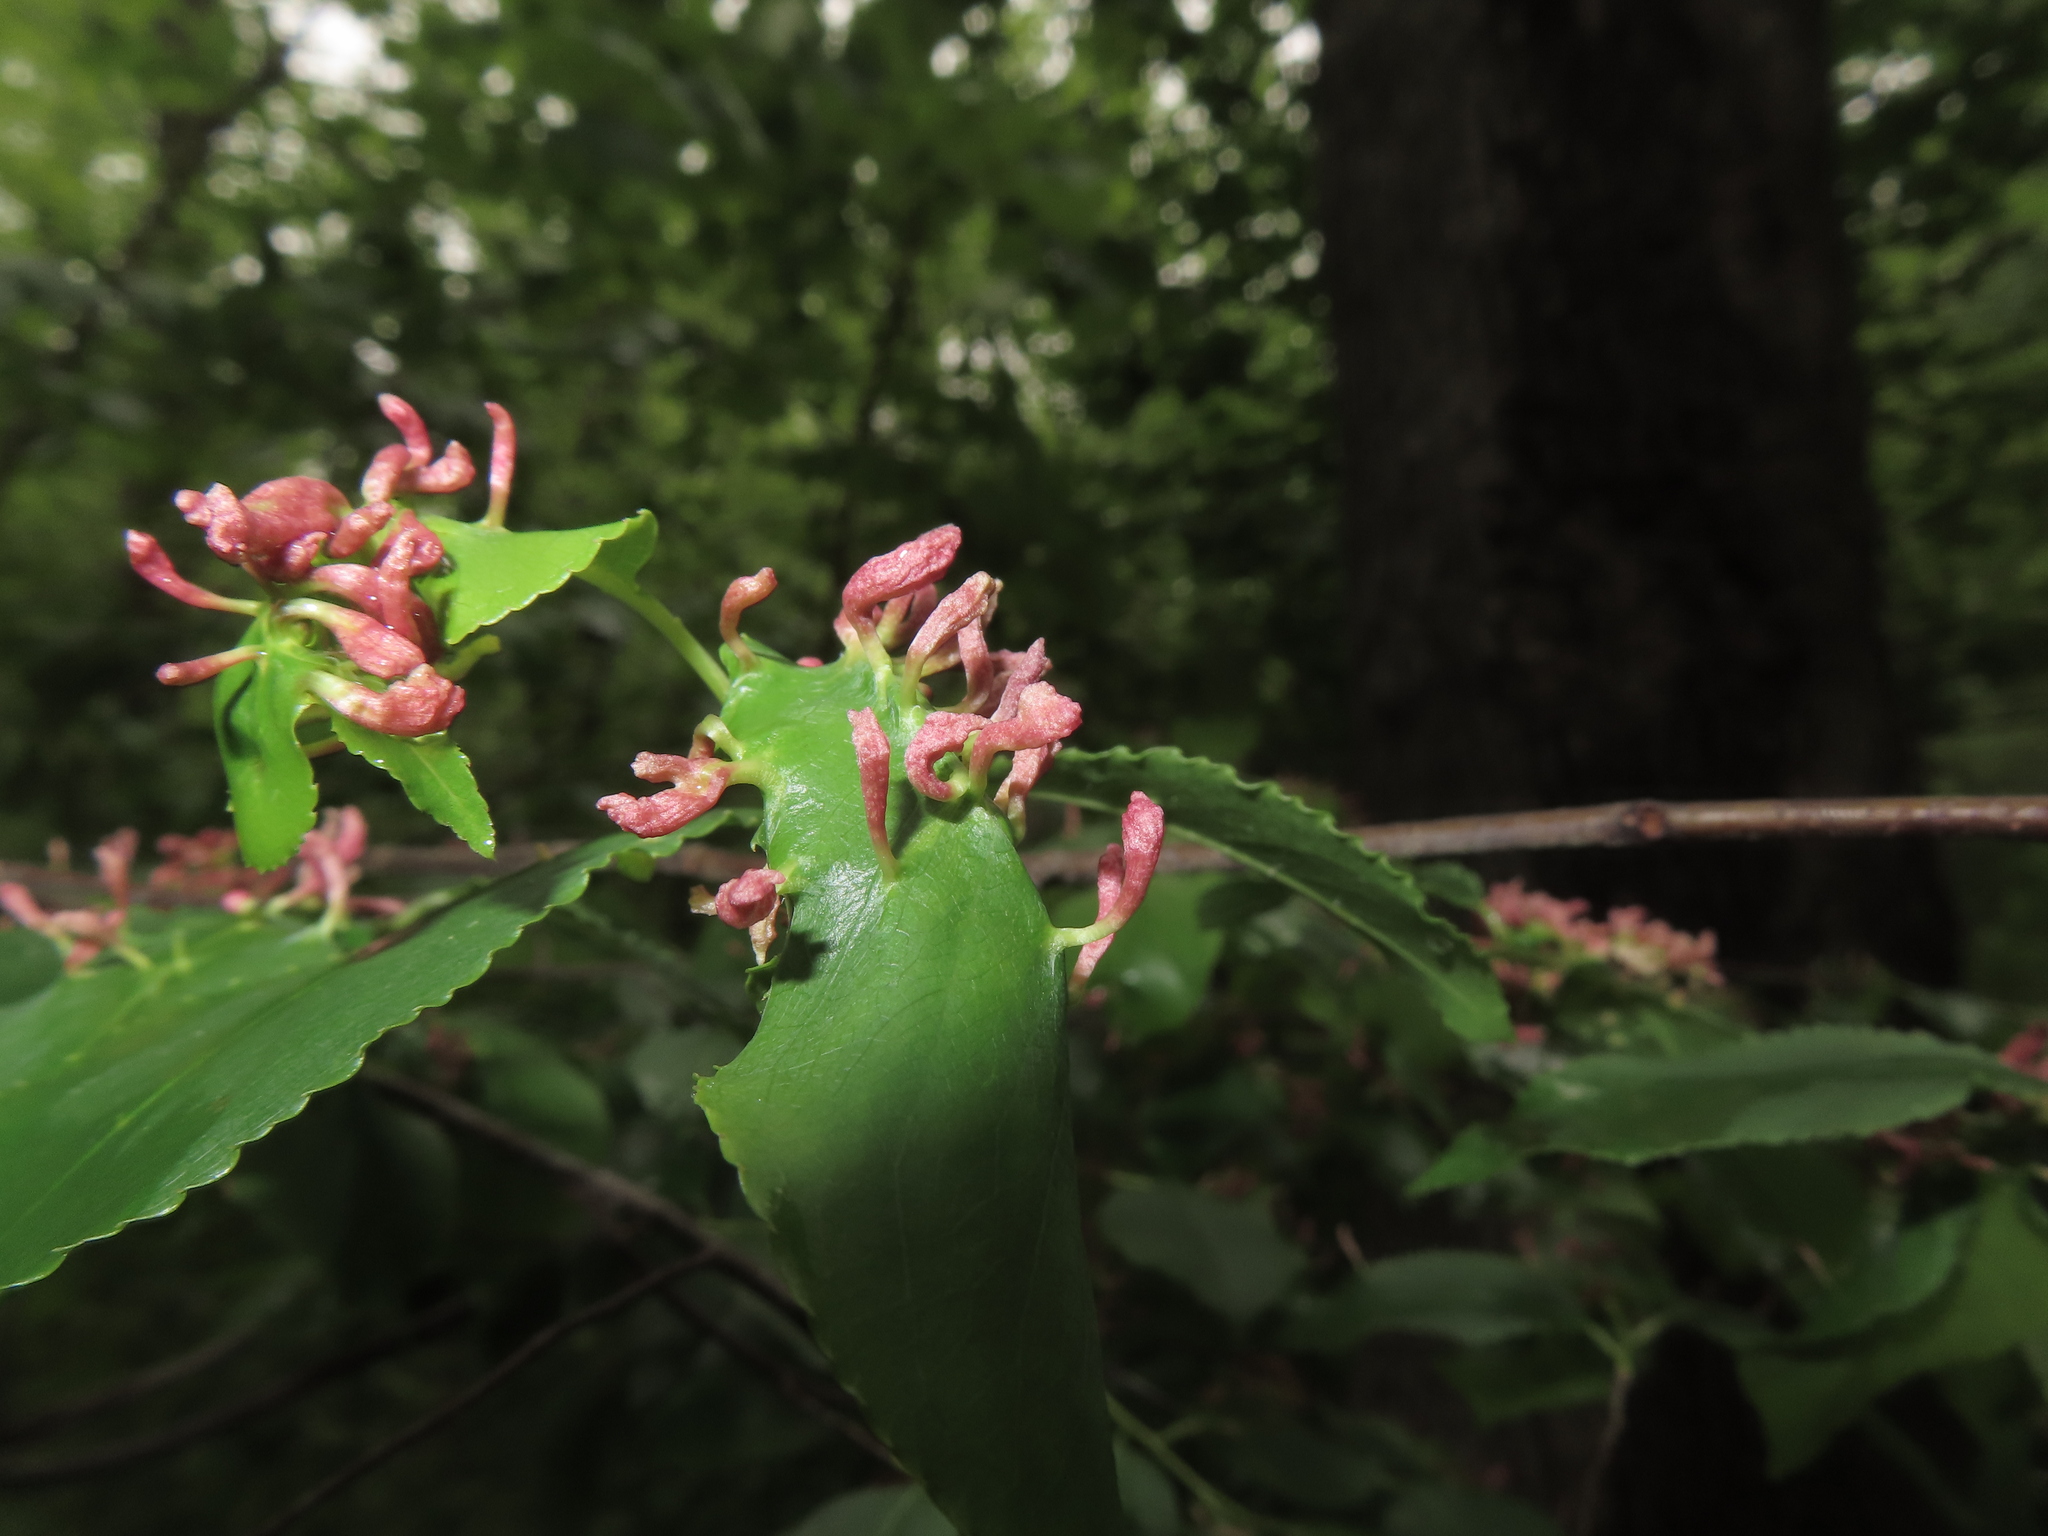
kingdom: Animalia
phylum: Arthropoda
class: Arachnida
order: Trombidiformes
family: Eriophyidae
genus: Eriophyes
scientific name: Eriophyes
